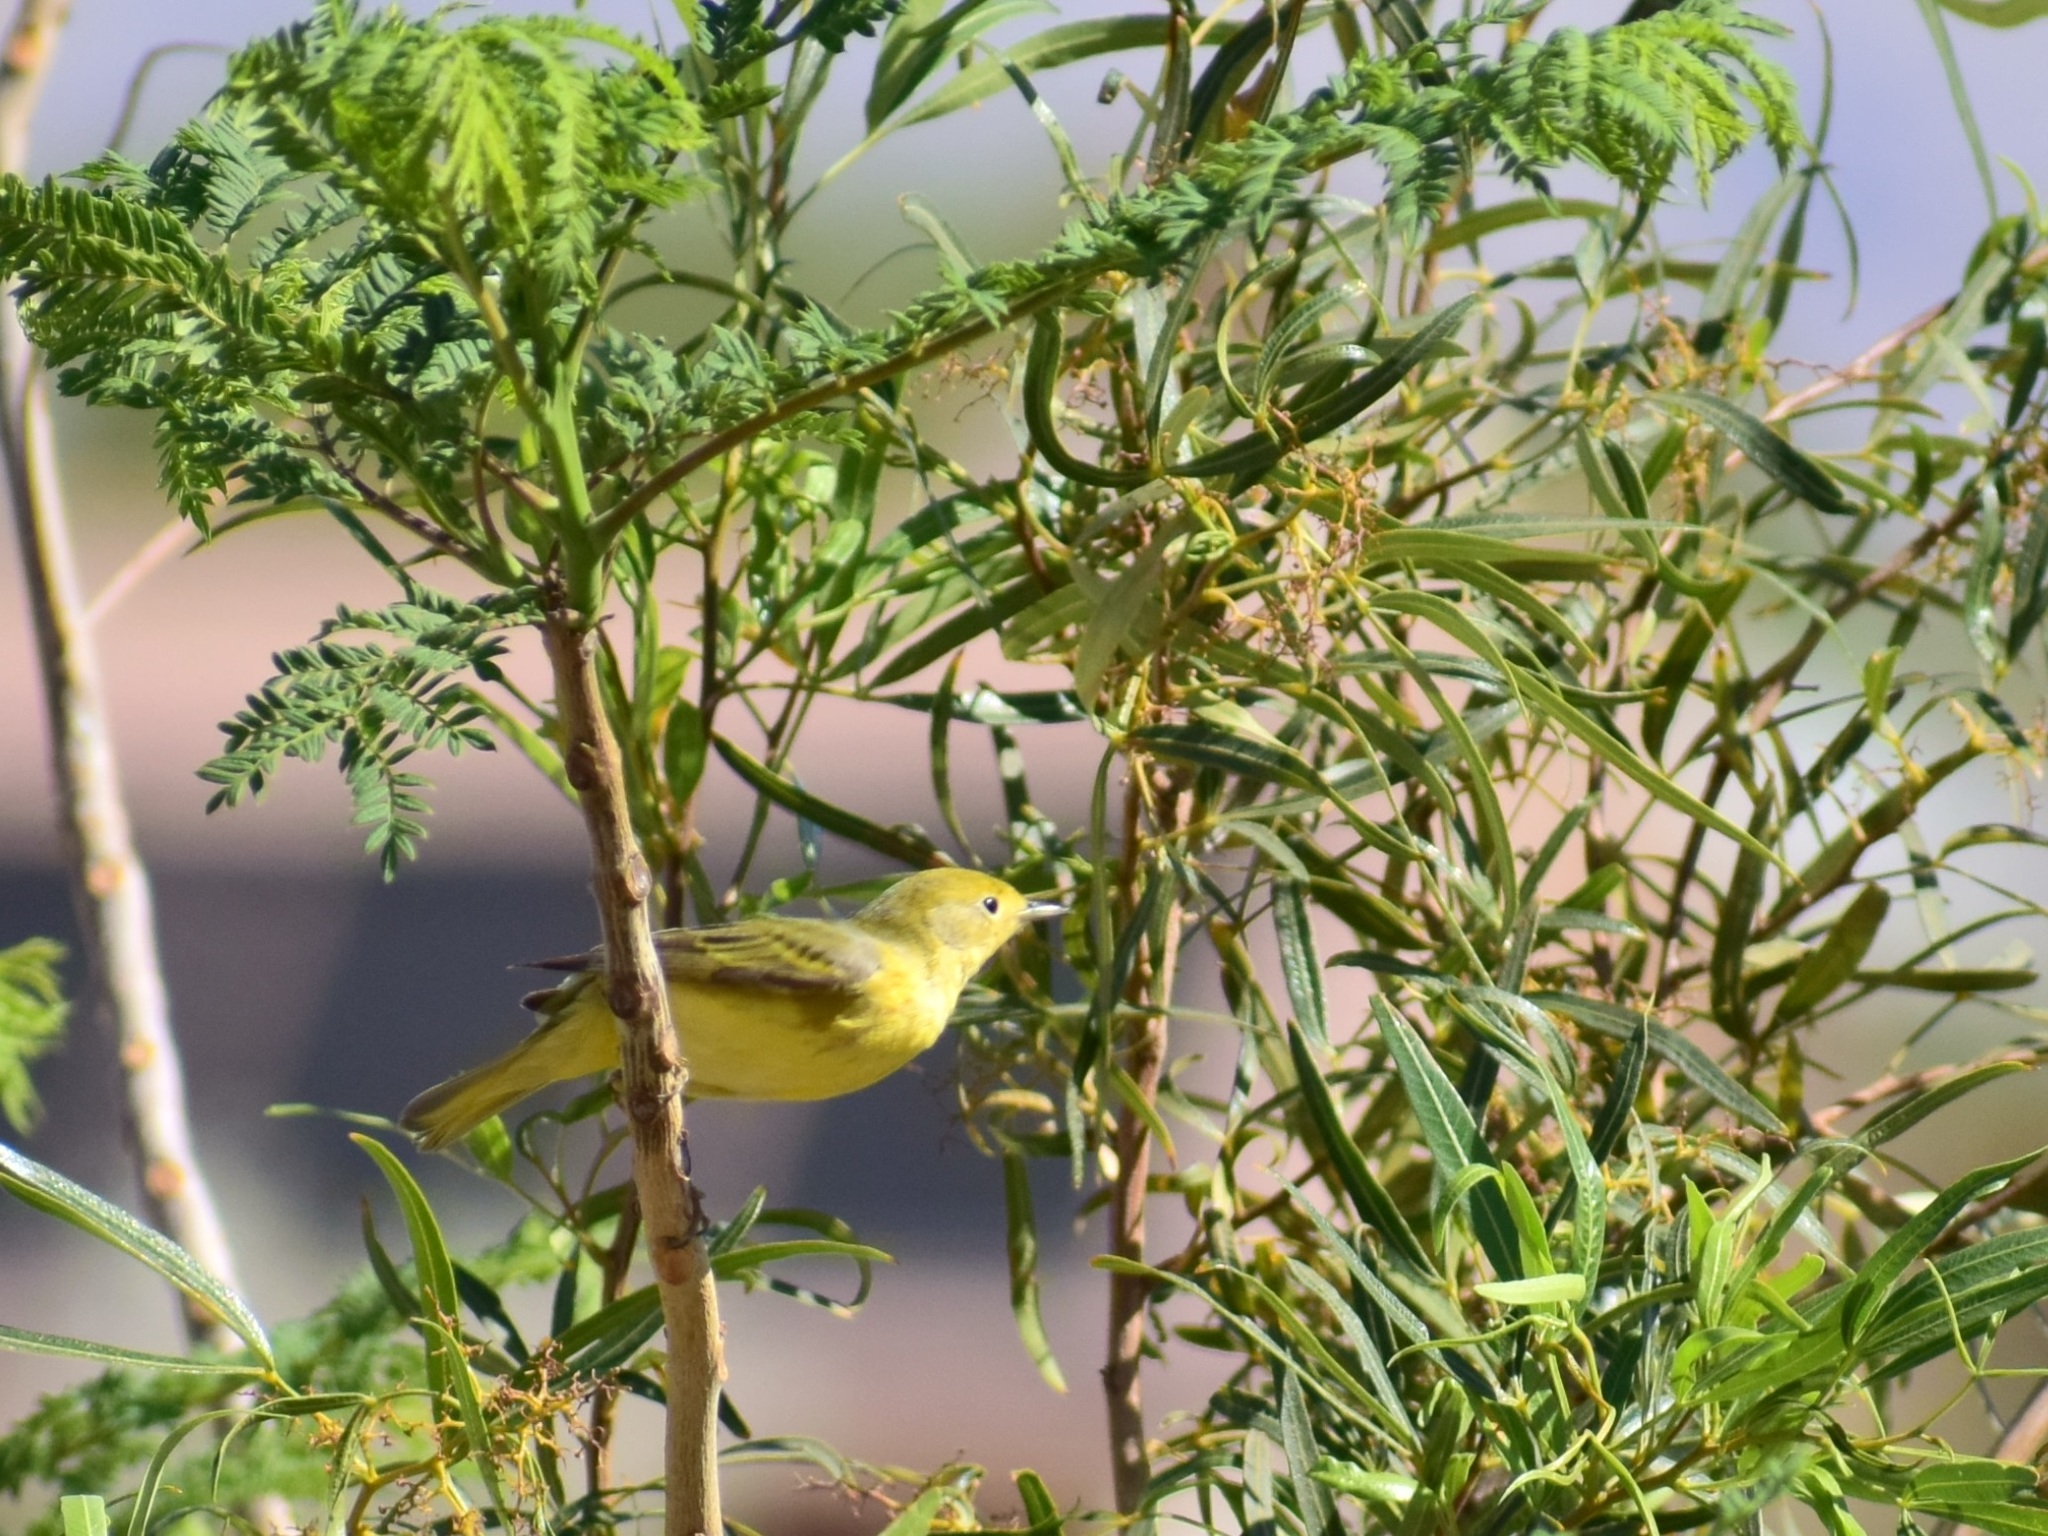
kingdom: Animalia
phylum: Chordata
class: Aves
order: Passeriformes
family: Parulidae
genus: Setophaga
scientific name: Setophaga petechia
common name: Yellow warbler
